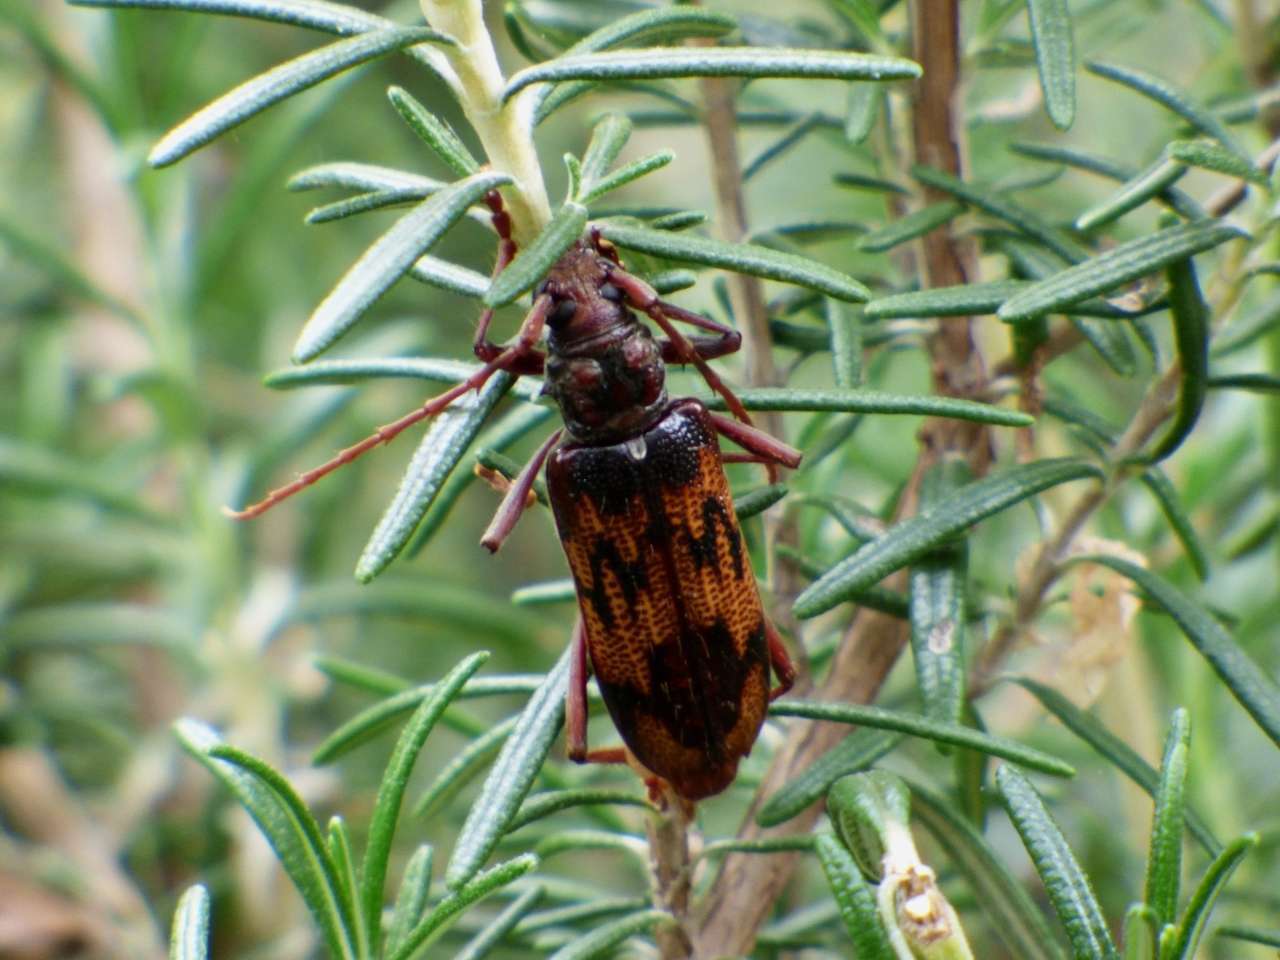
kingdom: Animalia
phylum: Arthropoda
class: Insecta
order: Coleoptera
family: Cerambycidae
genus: Phoracantha
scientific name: Phoracantha synonyma
